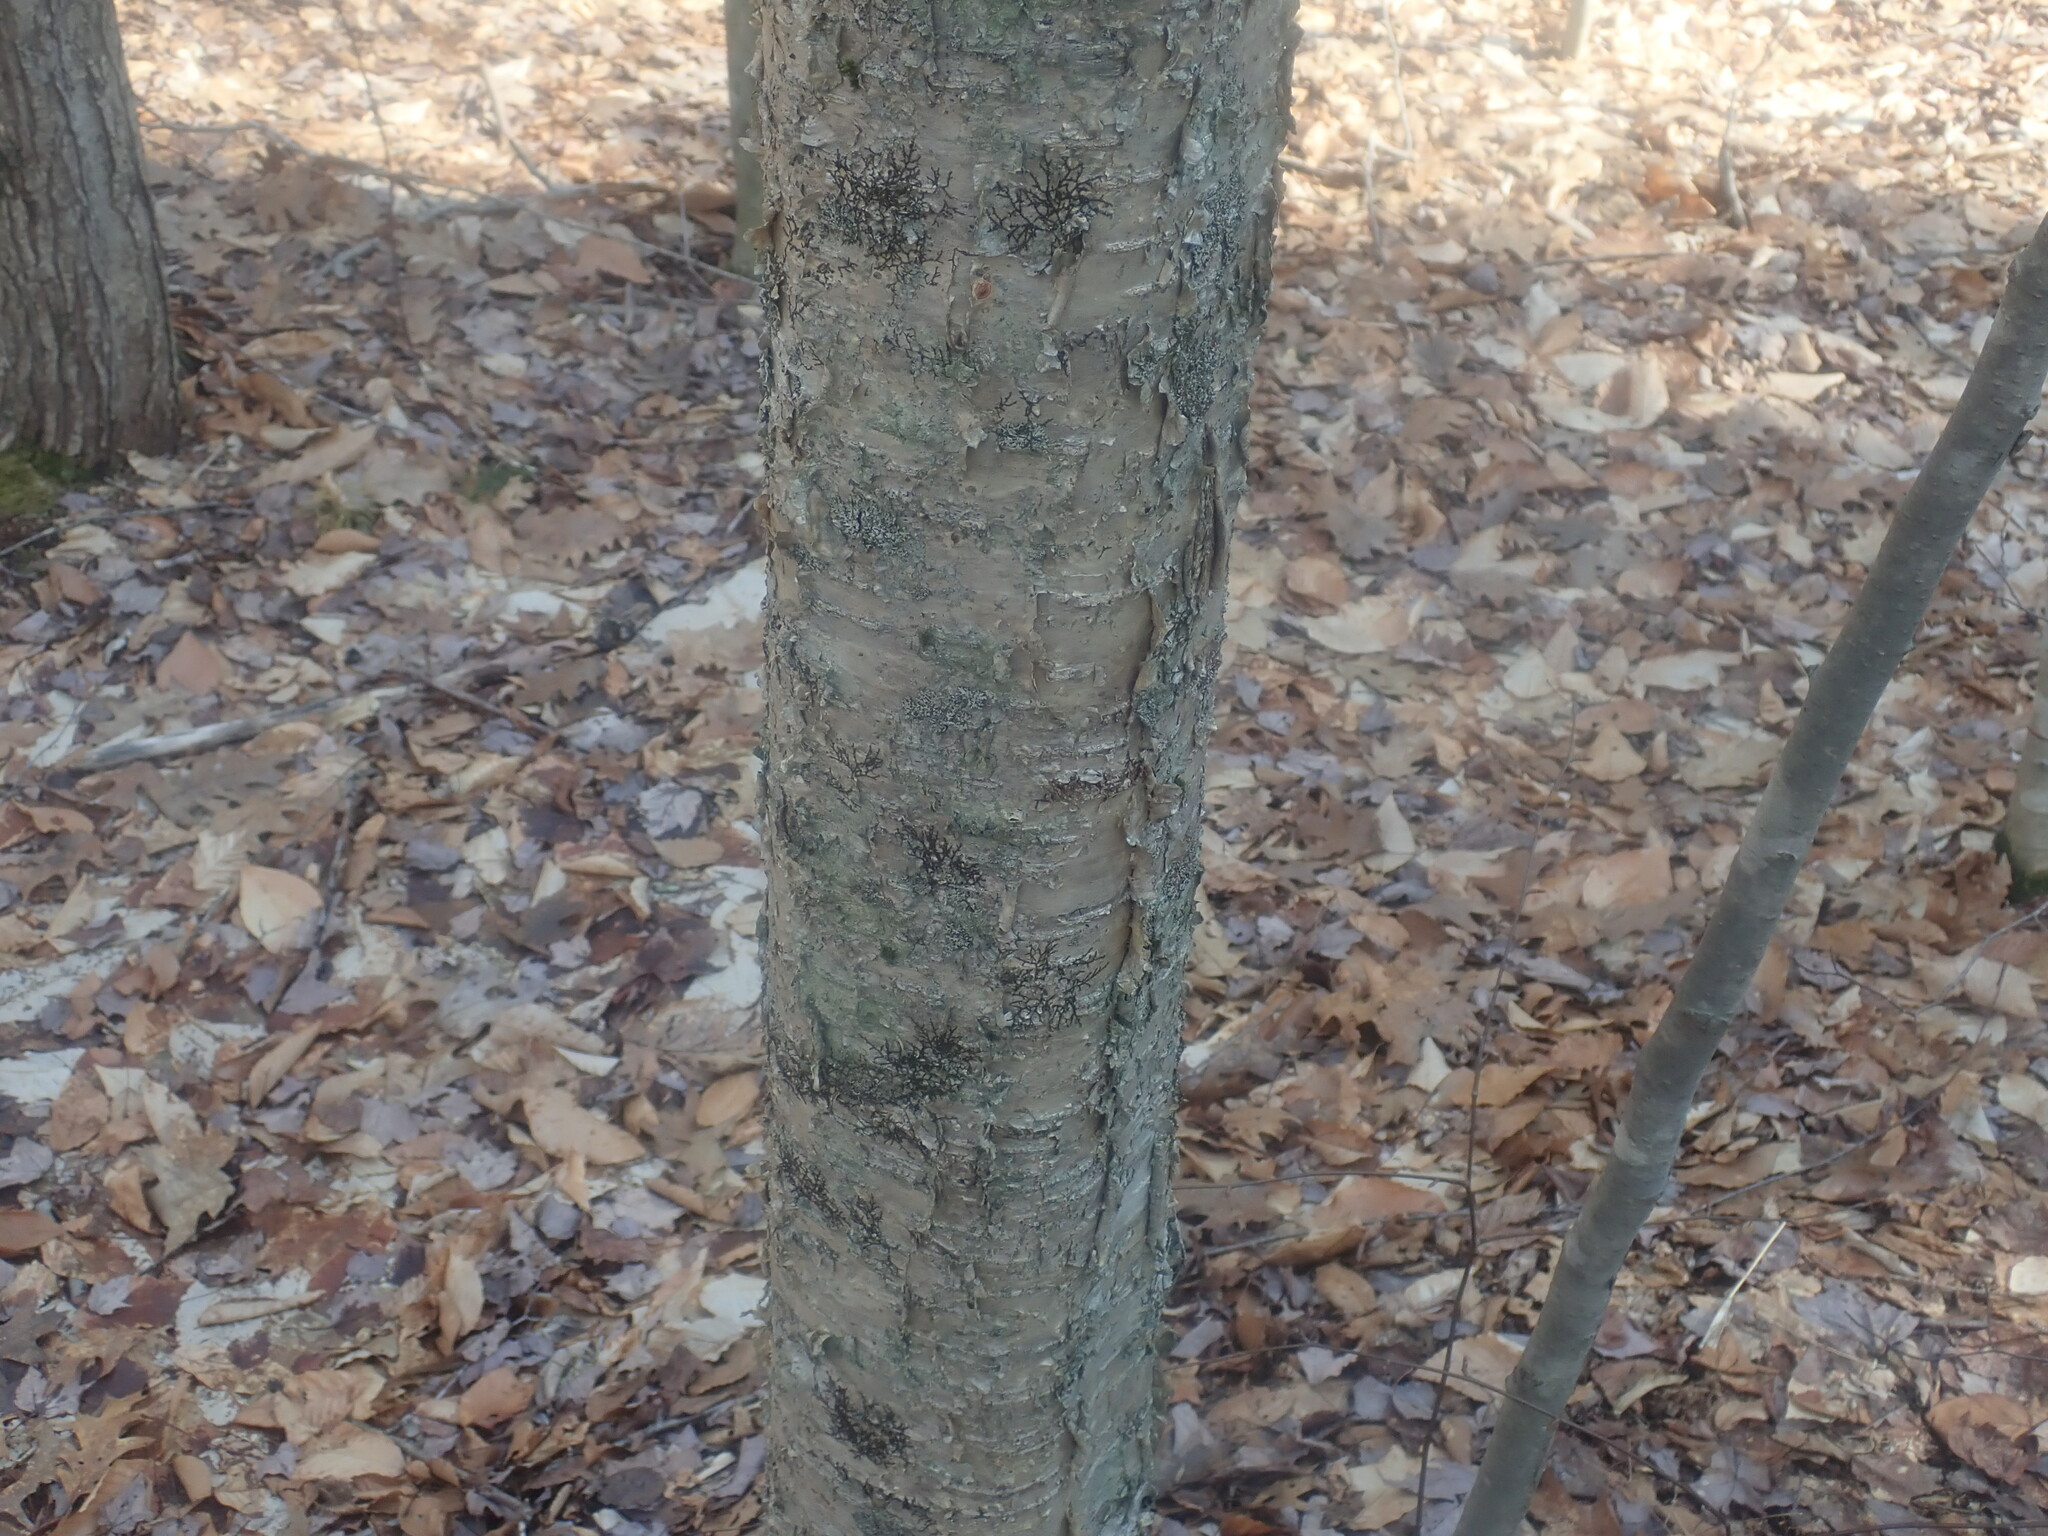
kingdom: Plantae
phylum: Tracheophyta
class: Magnoliopsida
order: Fagales
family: Betulaceae
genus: Betula
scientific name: Betula alleghaniensis
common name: Yellow birch
